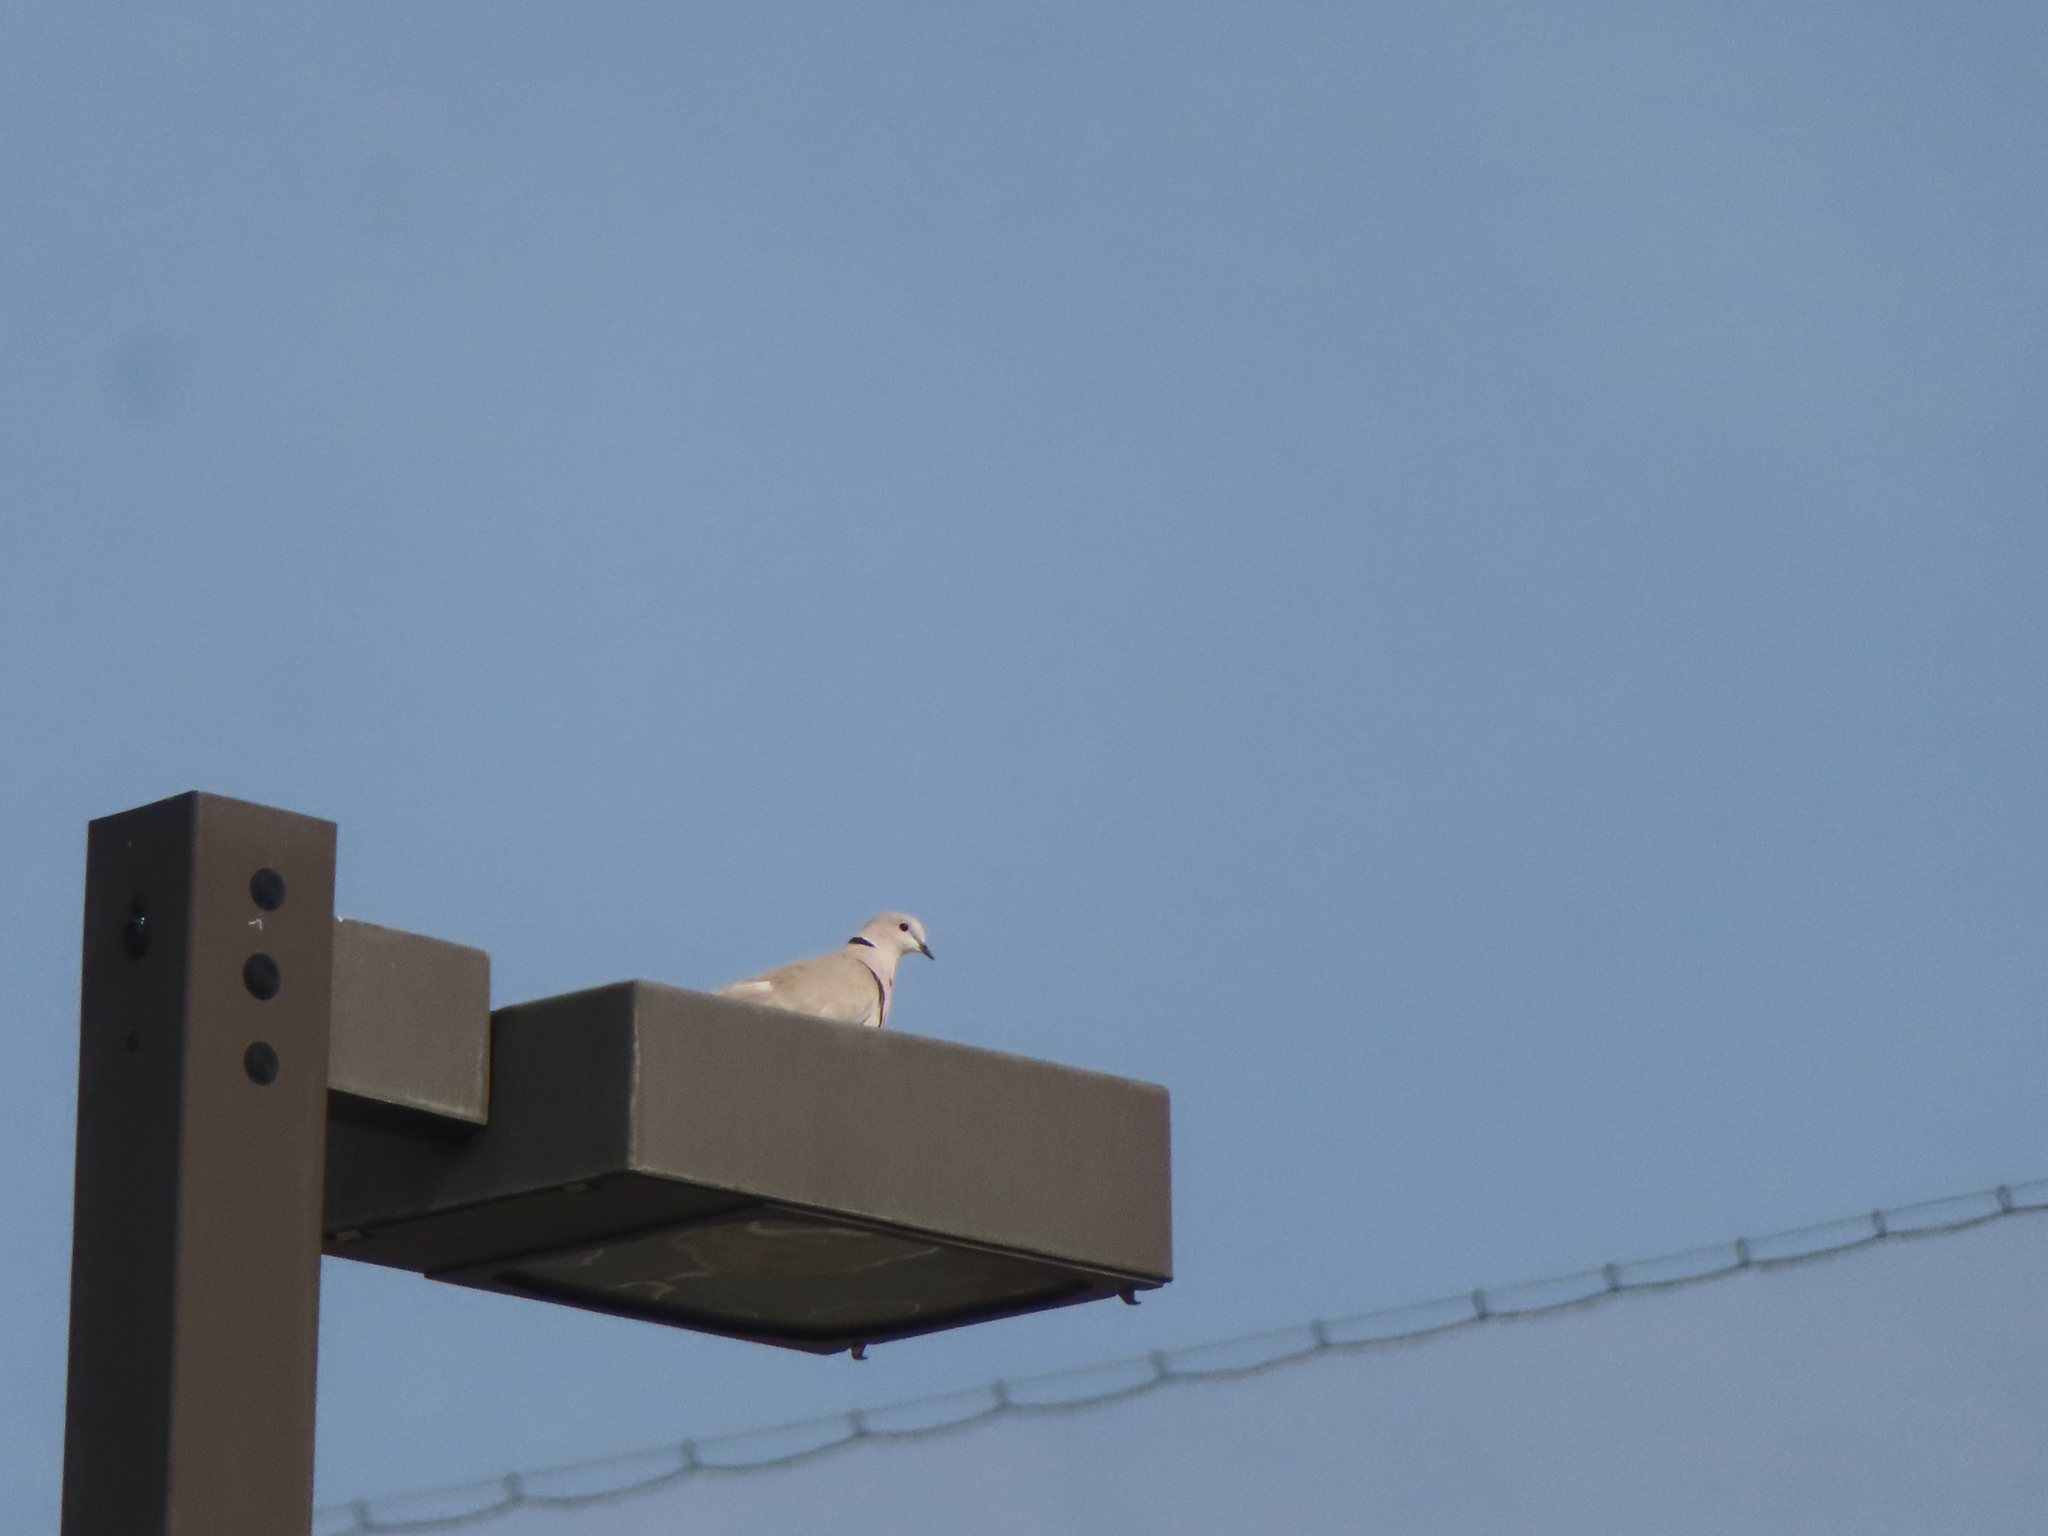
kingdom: Animalia
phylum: Chordata
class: Aves
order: Columbiformes
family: Columbidae
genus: Streptopelia
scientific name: Streptopelia decaocto
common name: Eurasian collared dove
